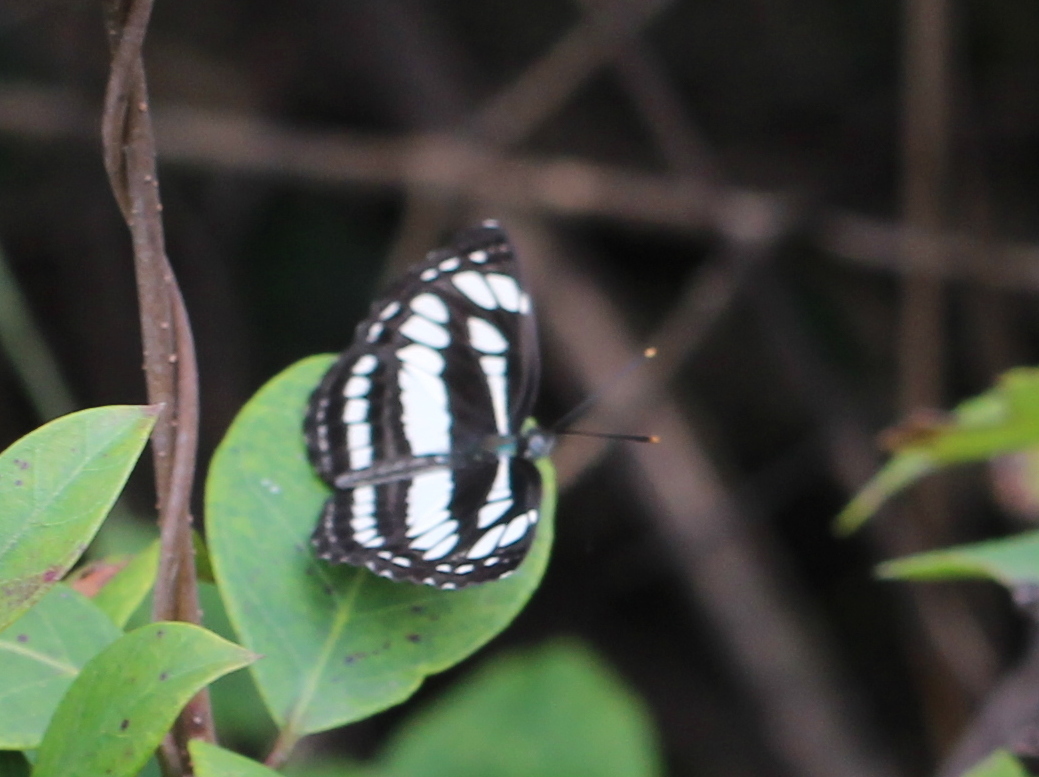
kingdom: Animalia
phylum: Arthropoda
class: Insecta
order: Lepidoptera
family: Nymphalidae
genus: Neptis
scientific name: Neptis hylas
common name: Common sailer
